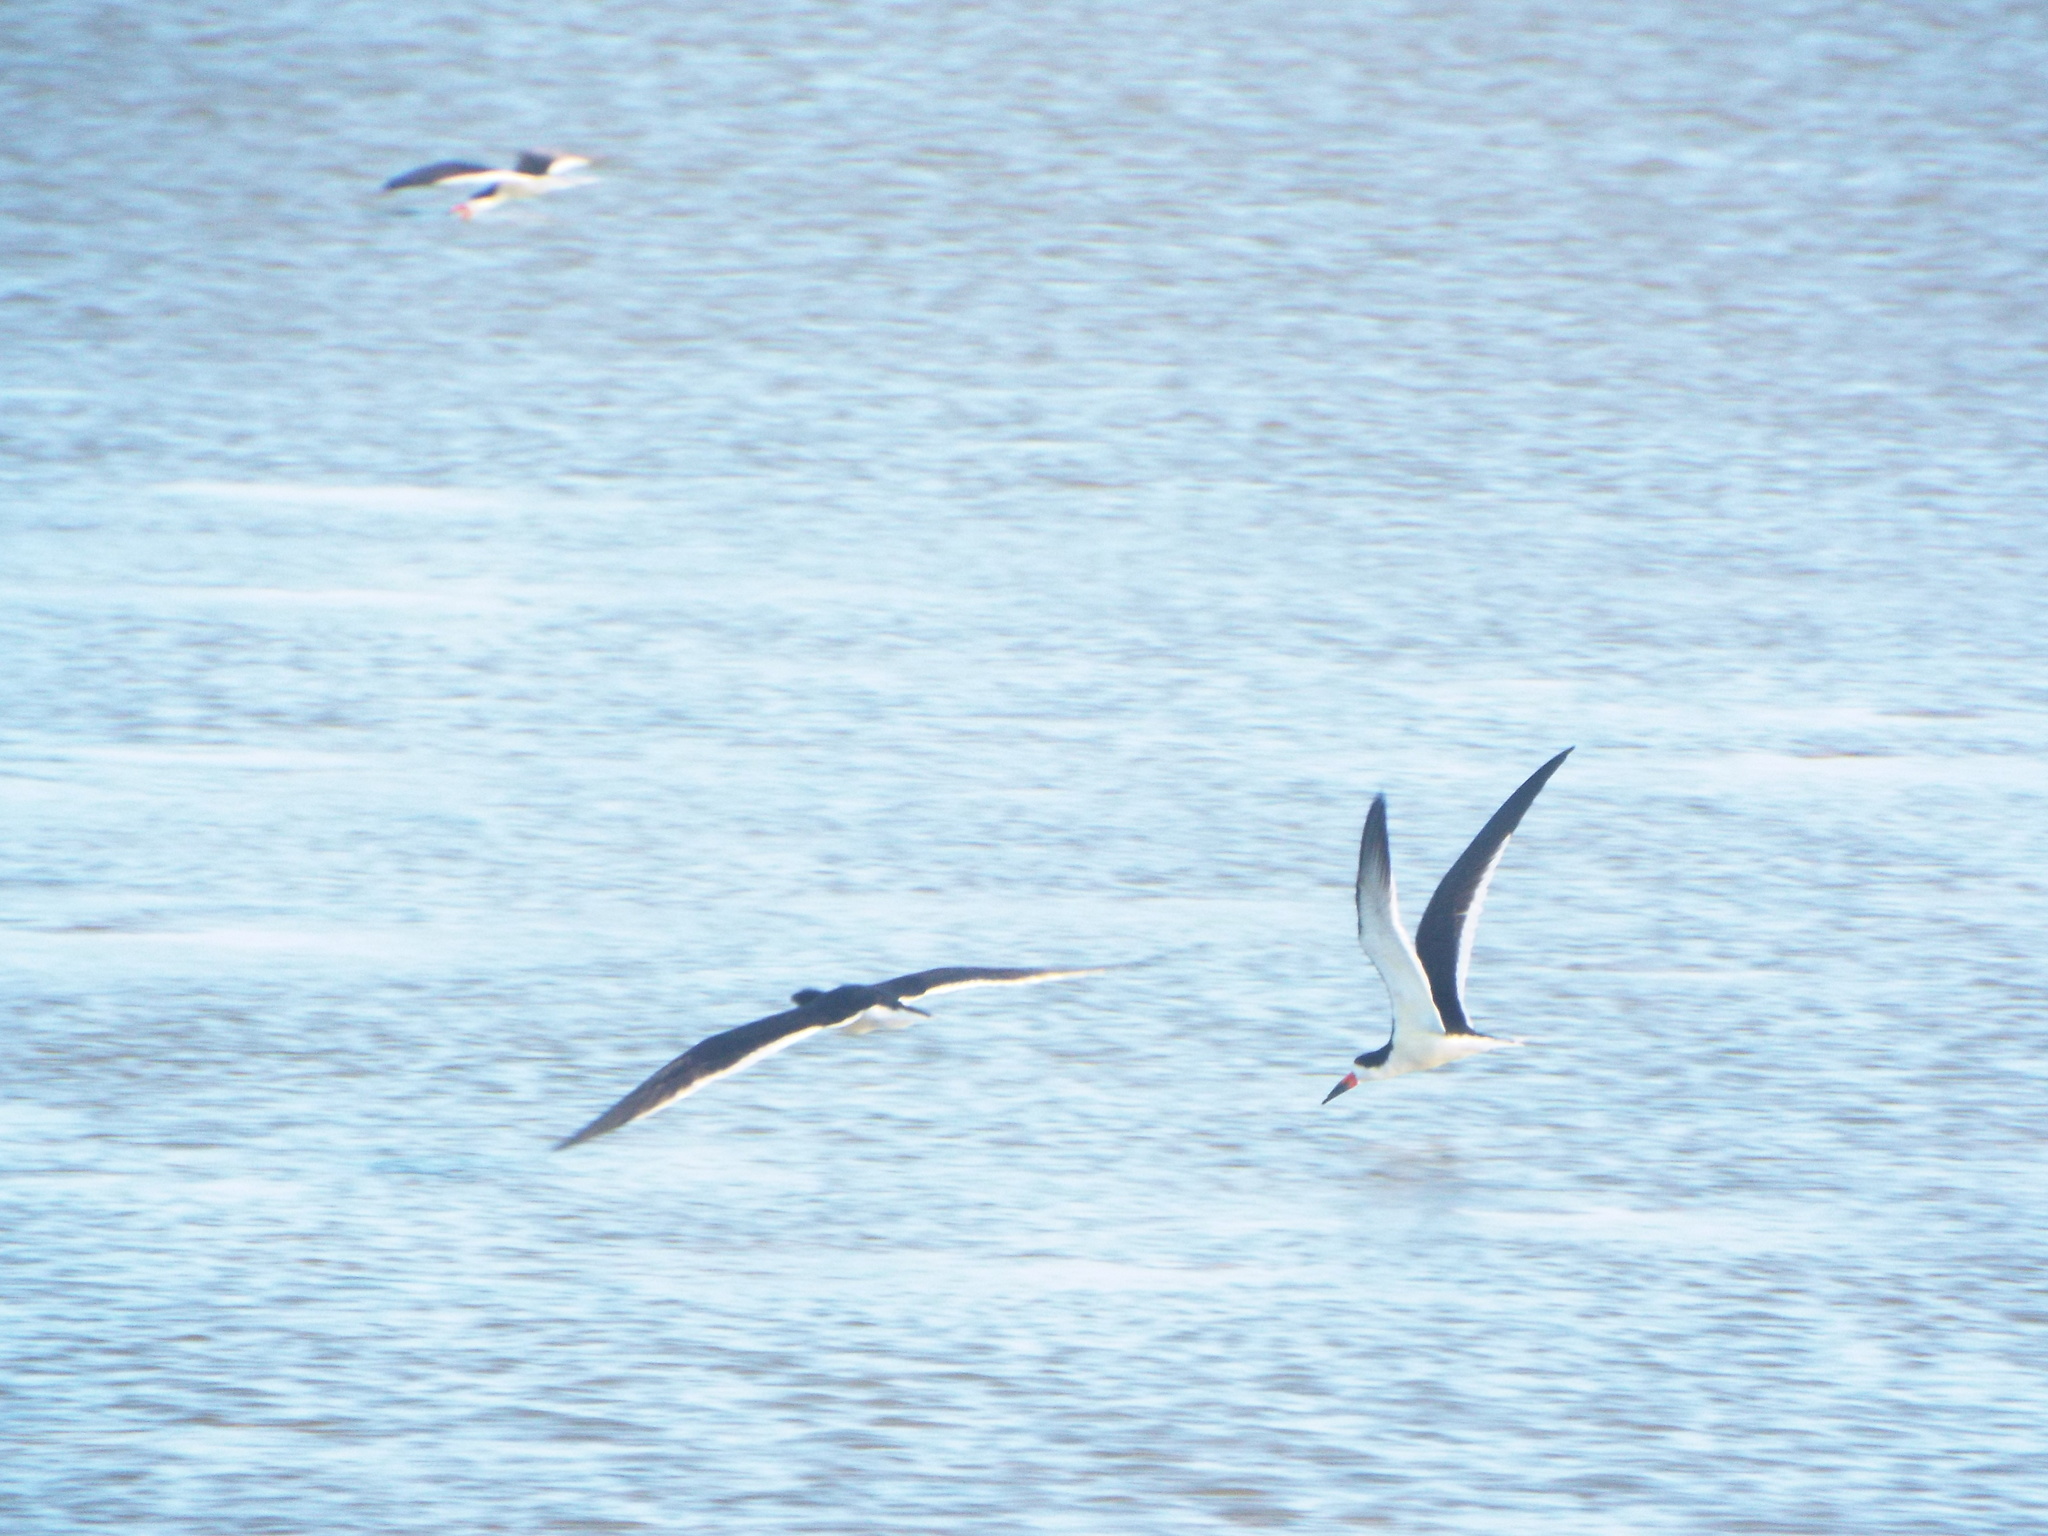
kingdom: Animalia
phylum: Chordata
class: Aves
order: Charadriiformes
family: Laridae
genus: Rynchops
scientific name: Rynchops niger
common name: Black skimmer
